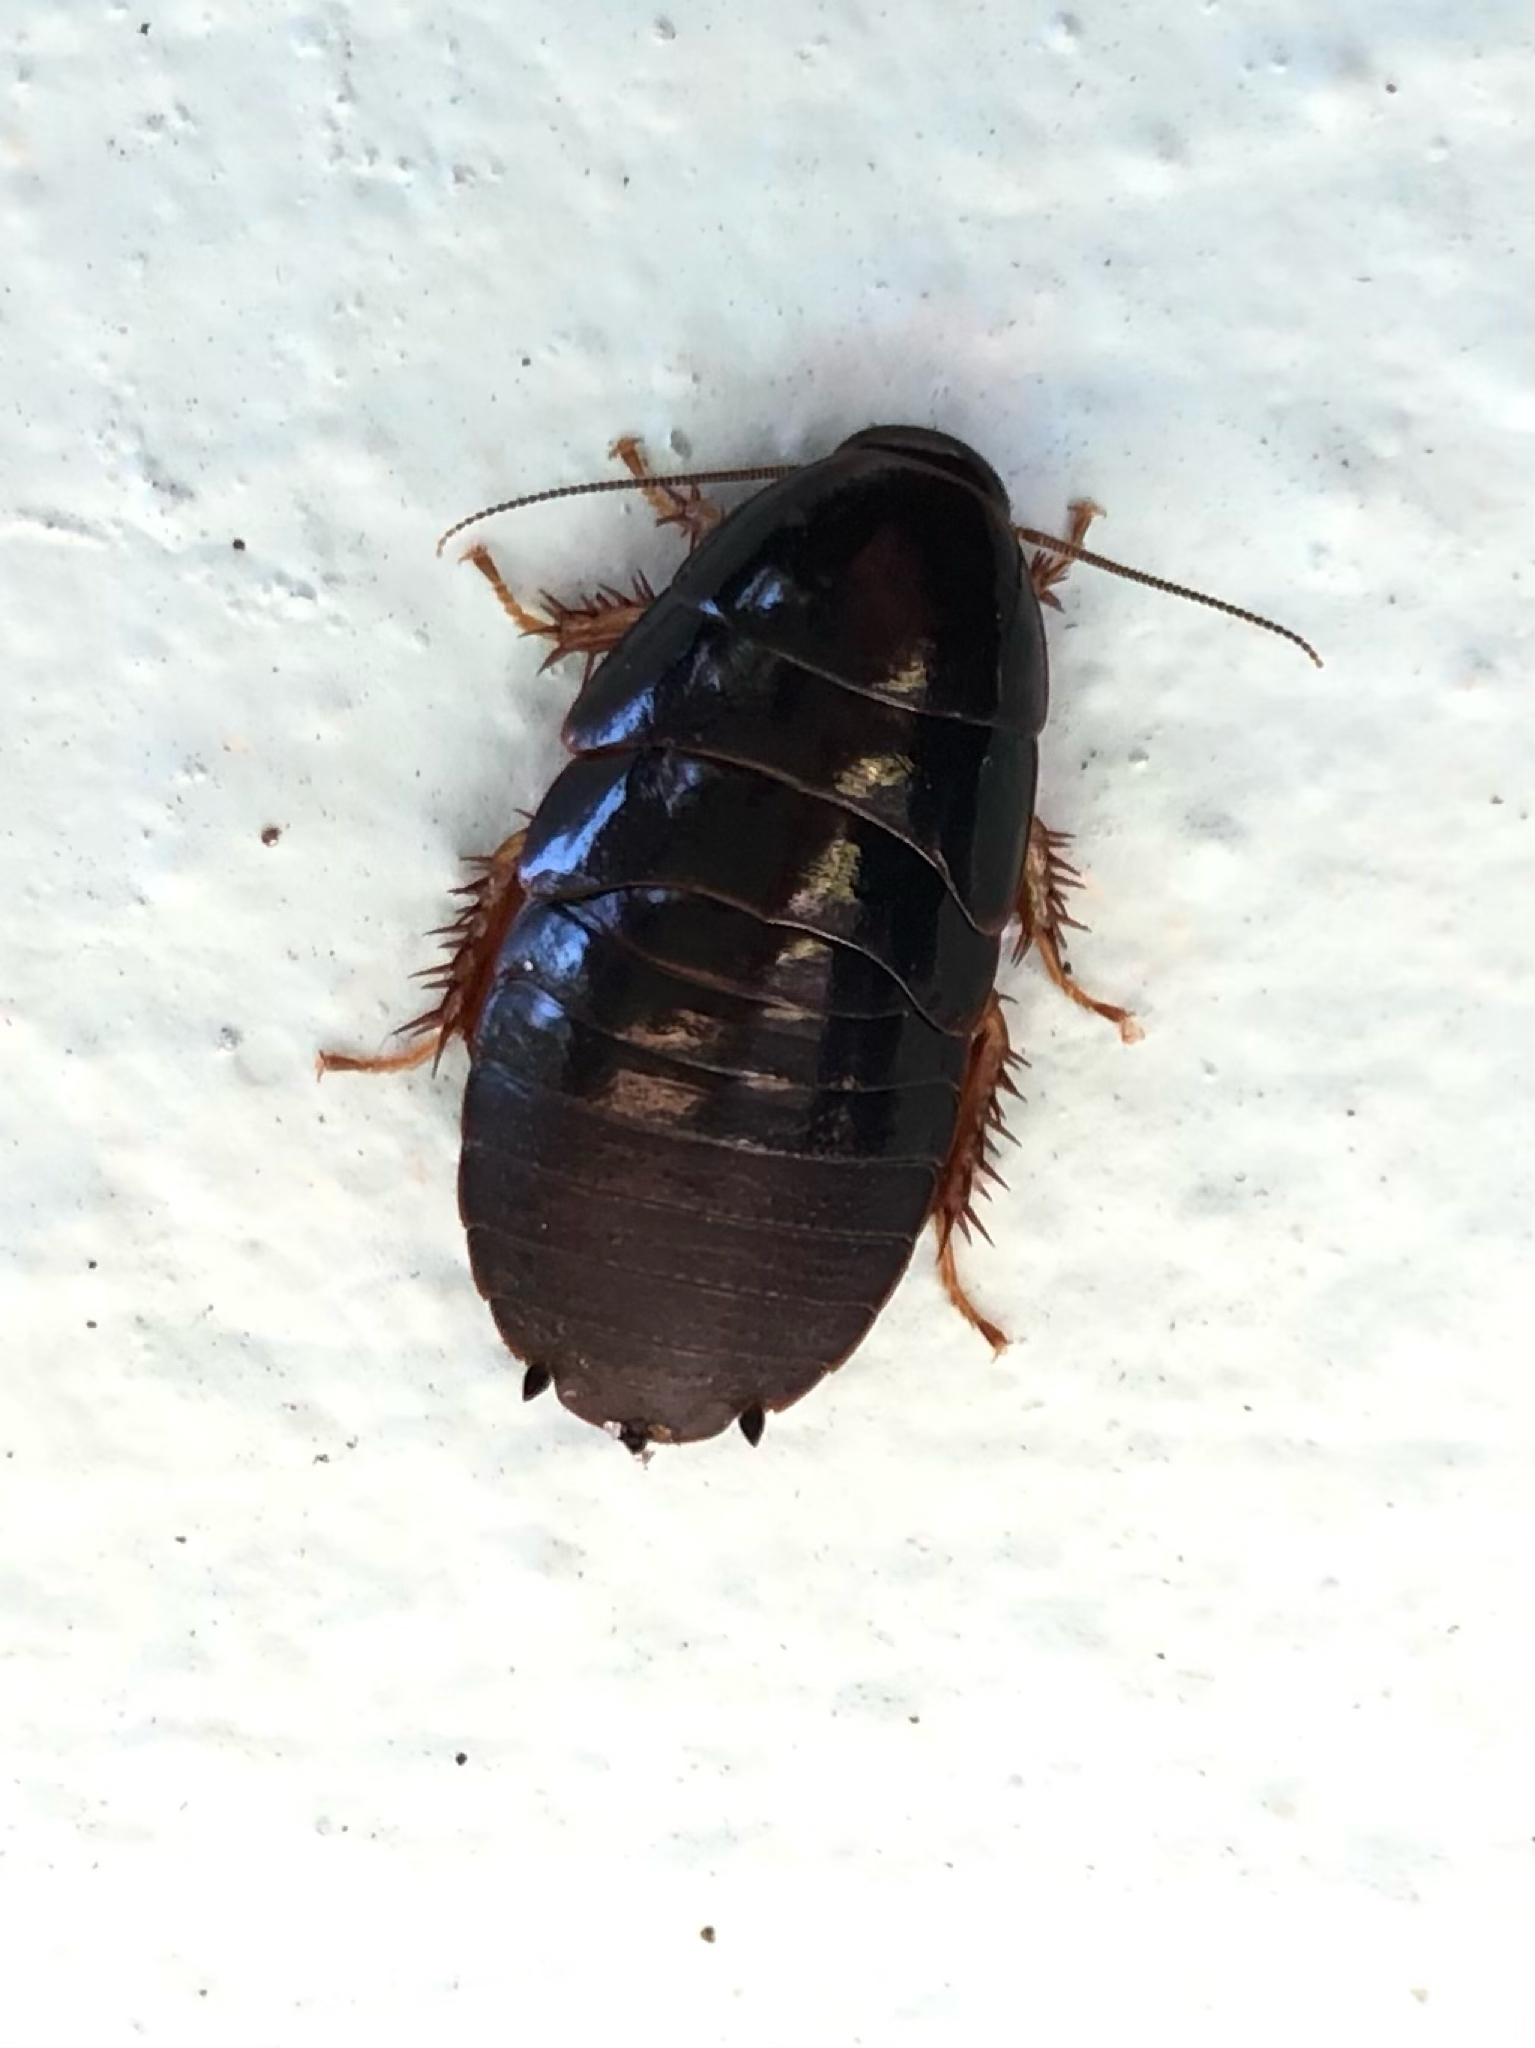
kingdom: Animalia
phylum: Arthropoda
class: Insecta
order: Blattodea
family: Blaberidae
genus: Pycnoscelus
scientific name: Pycnoscelus surinamensis
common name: Surinam cockroach
